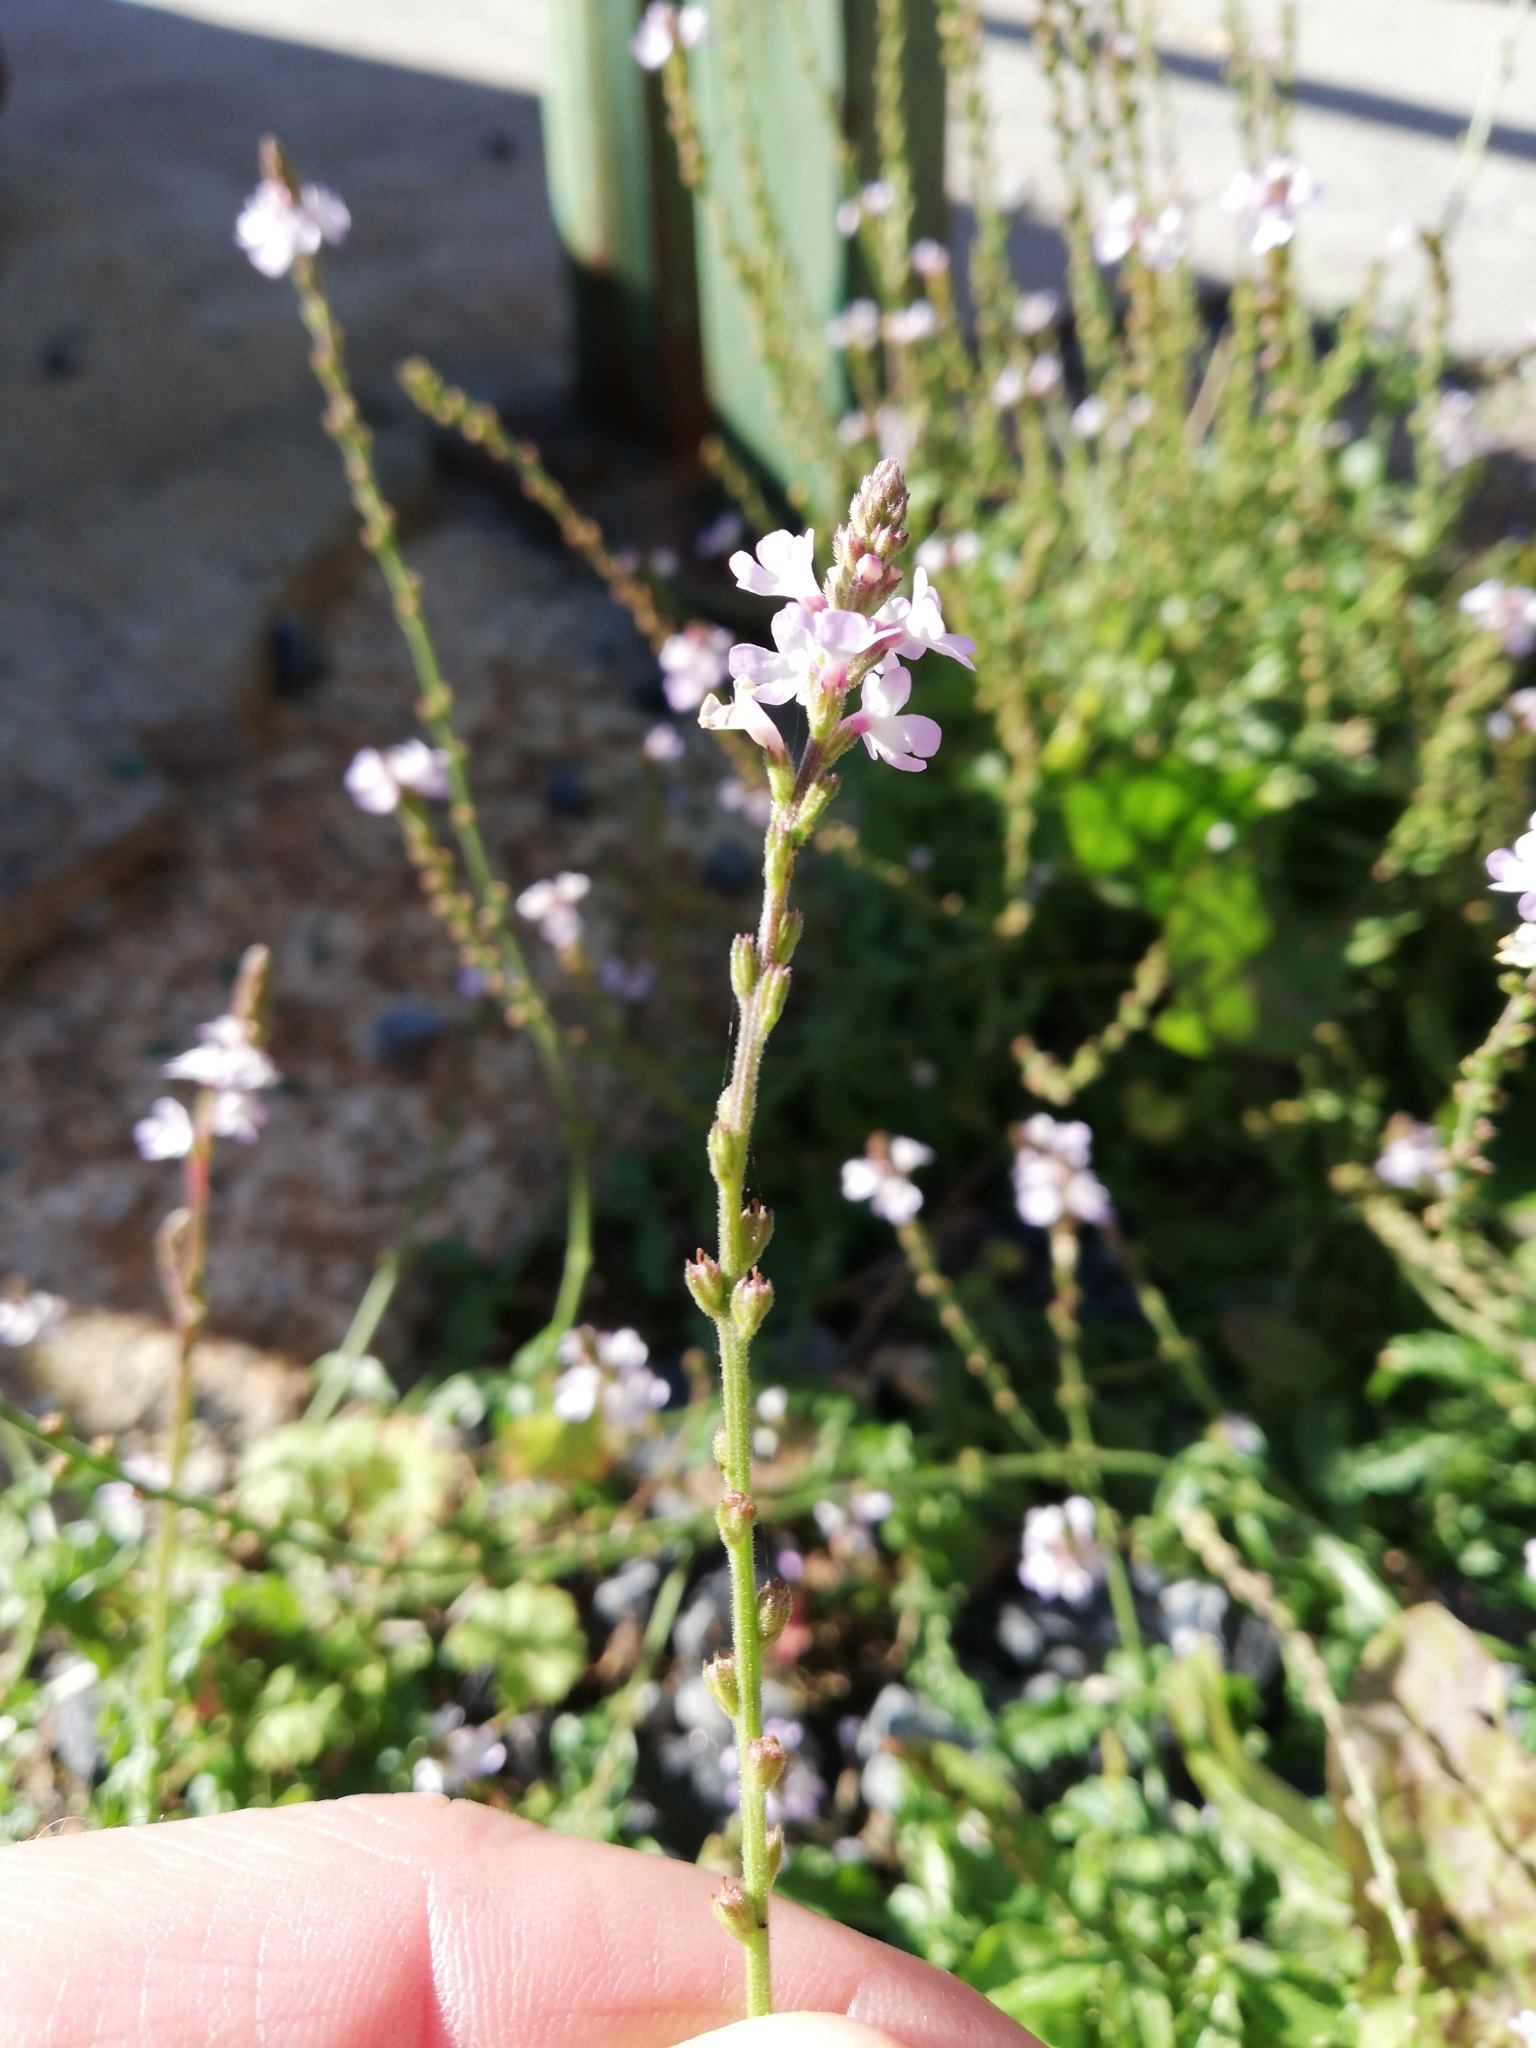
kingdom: Plantae
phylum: Tracheophyta
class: Magnoliopsida
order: Lamiales
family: Verbenaceae
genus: Verbena
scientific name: Verbena officinalis
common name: Vervain
